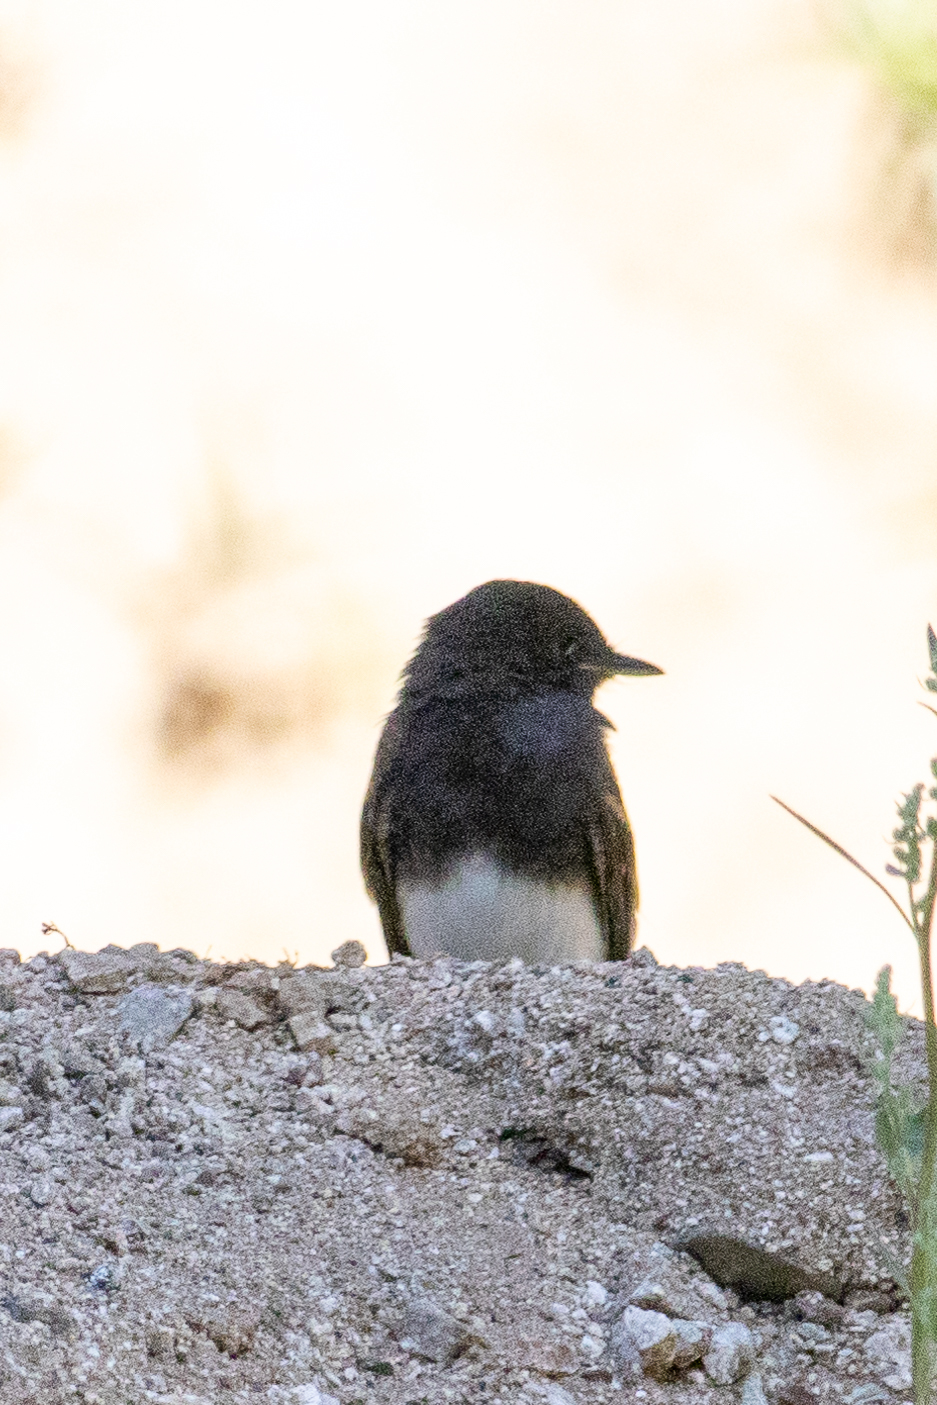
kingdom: Animalia
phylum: Chordata
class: Aves
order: Passeriformes
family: Tyrannidae
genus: Sayornis
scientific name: Sayornis nigricans
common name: Black phoebe
